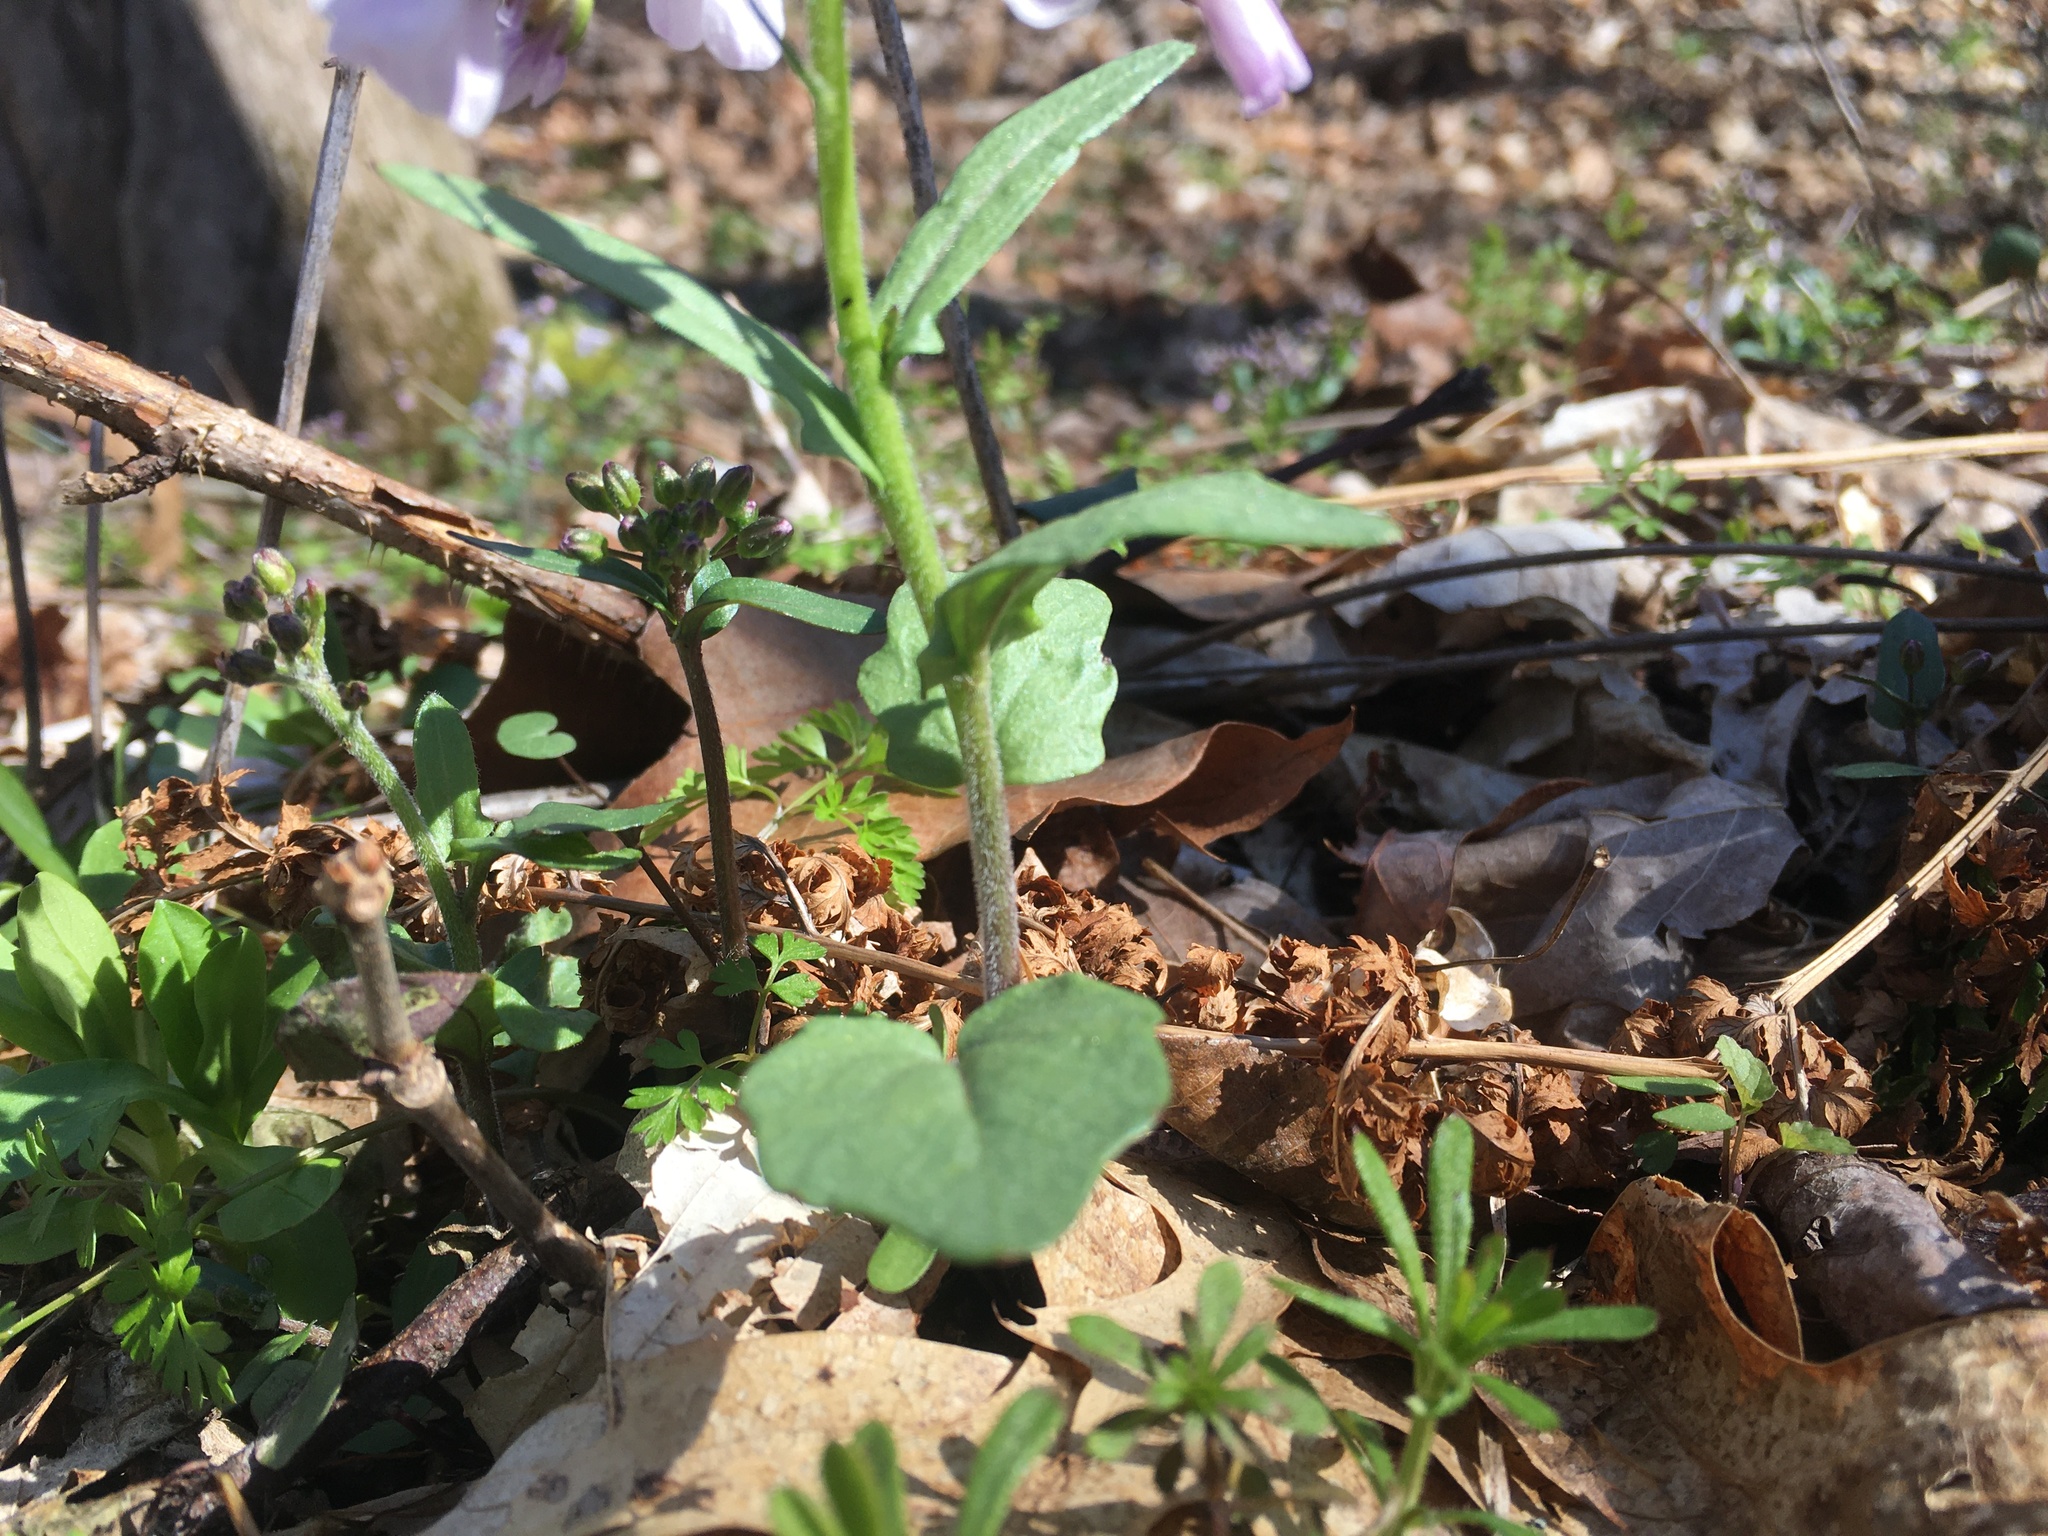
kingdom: Plantae
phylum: Tracheophyta
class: Magnoliopsida
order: Brassicales
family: Brassicaceae
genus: Cardamine
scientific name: Cardamine douglassii
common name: Purple cress
